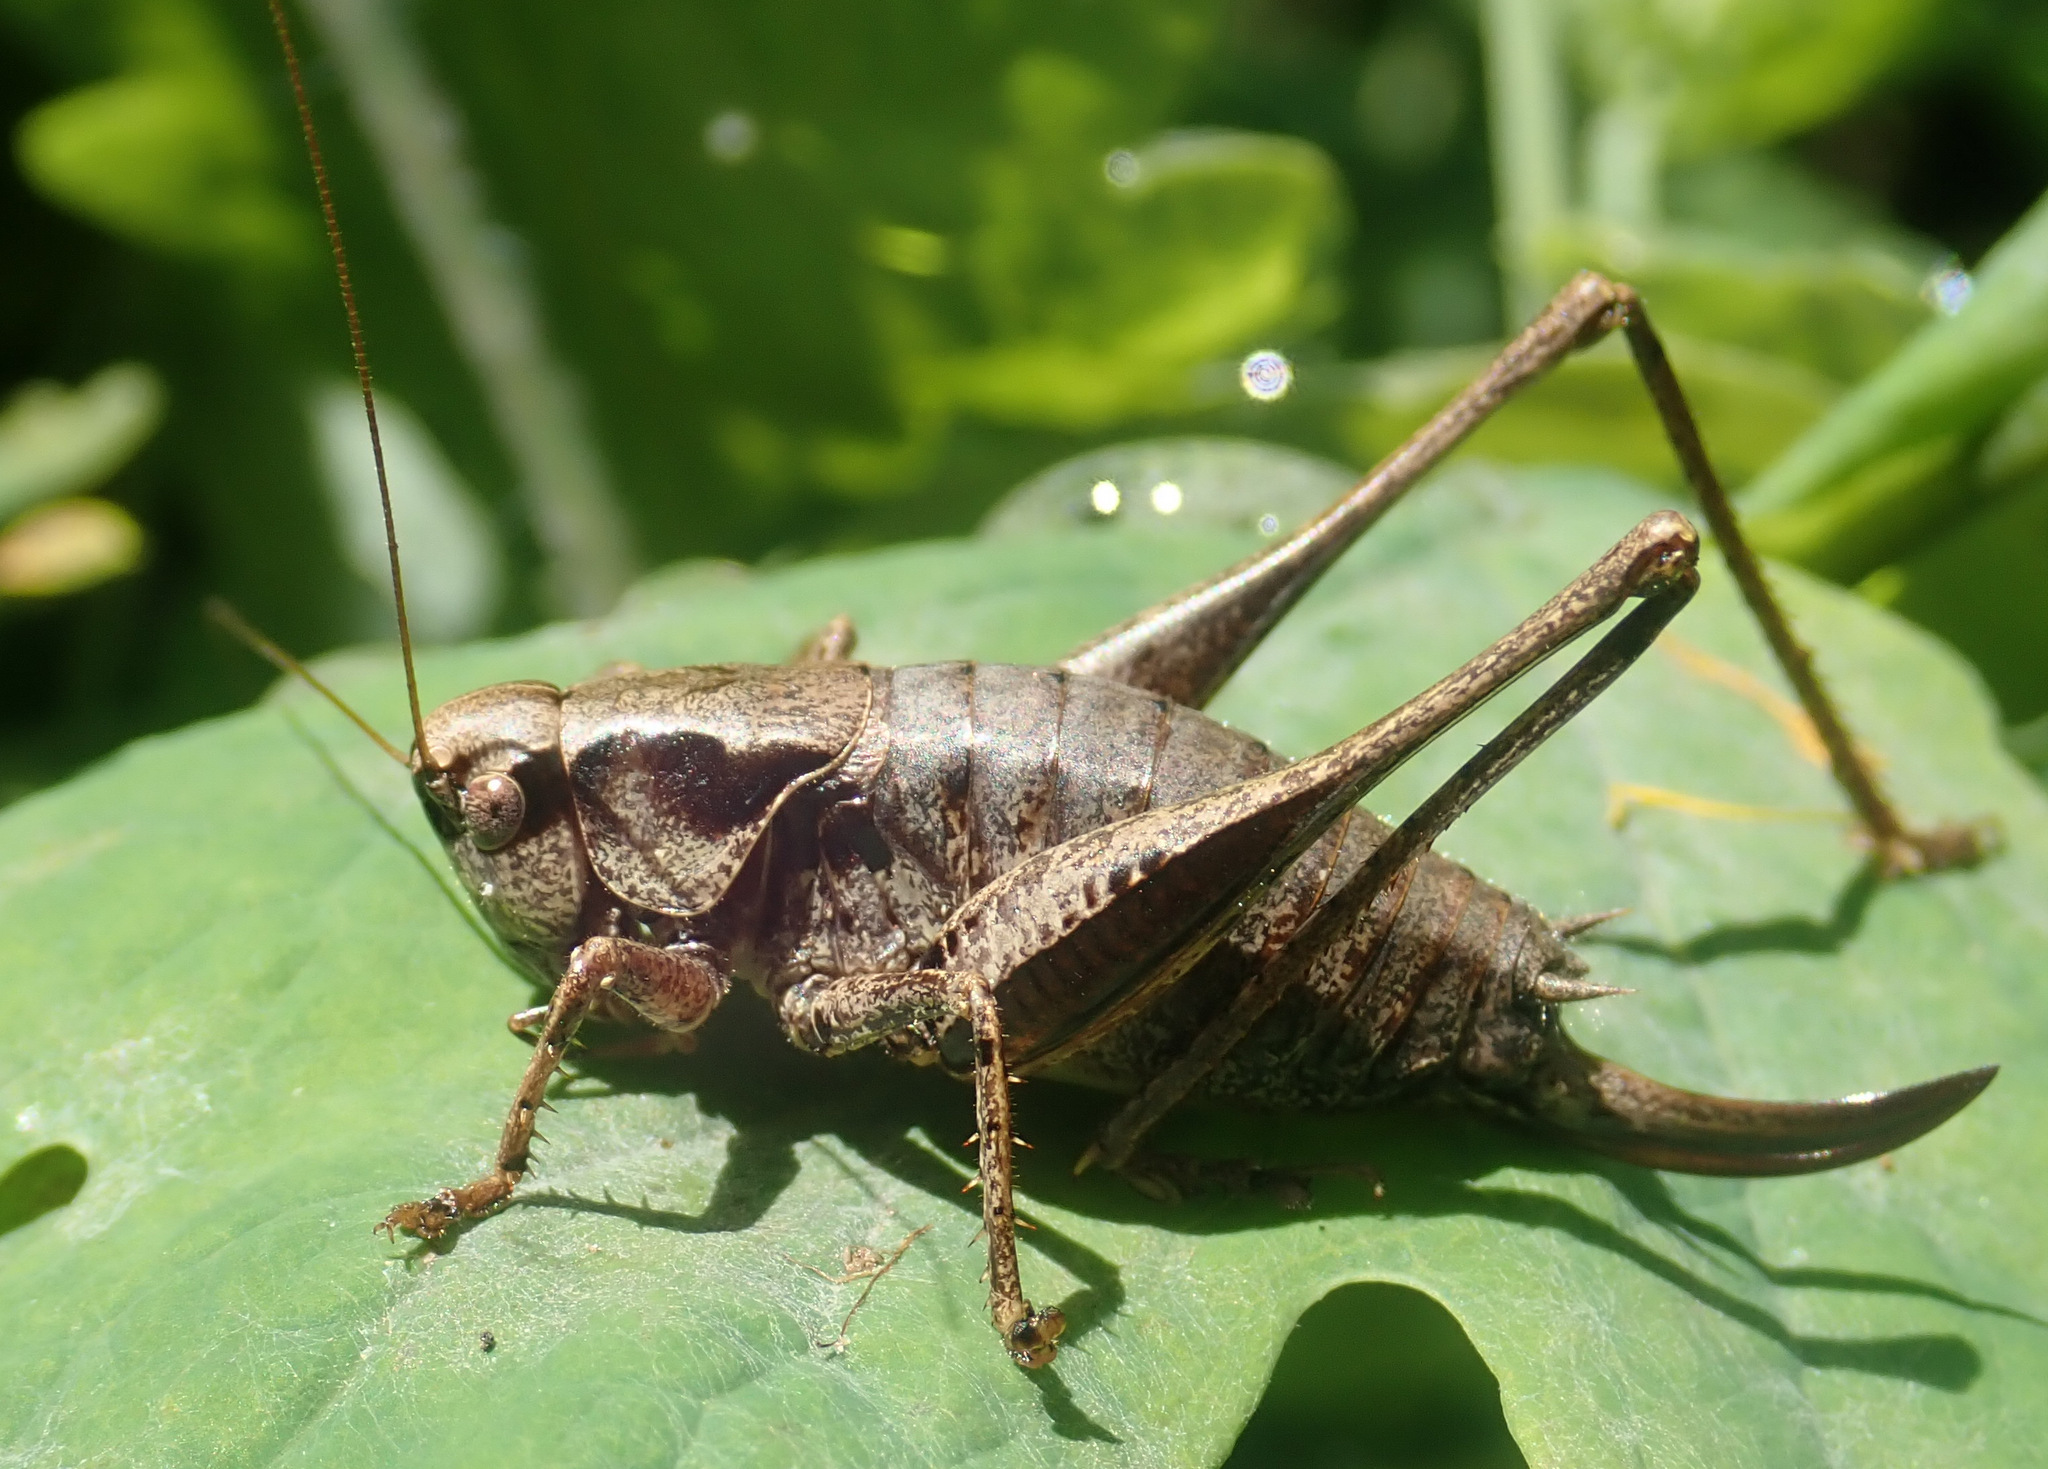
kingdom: Animalia
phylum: Arthropoda
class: Insecta
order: Orthoptera
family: Tettigoniidae
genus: Pholidoptera
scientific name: Pholidoptera griseoaptera
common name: Dark bush-cricket
